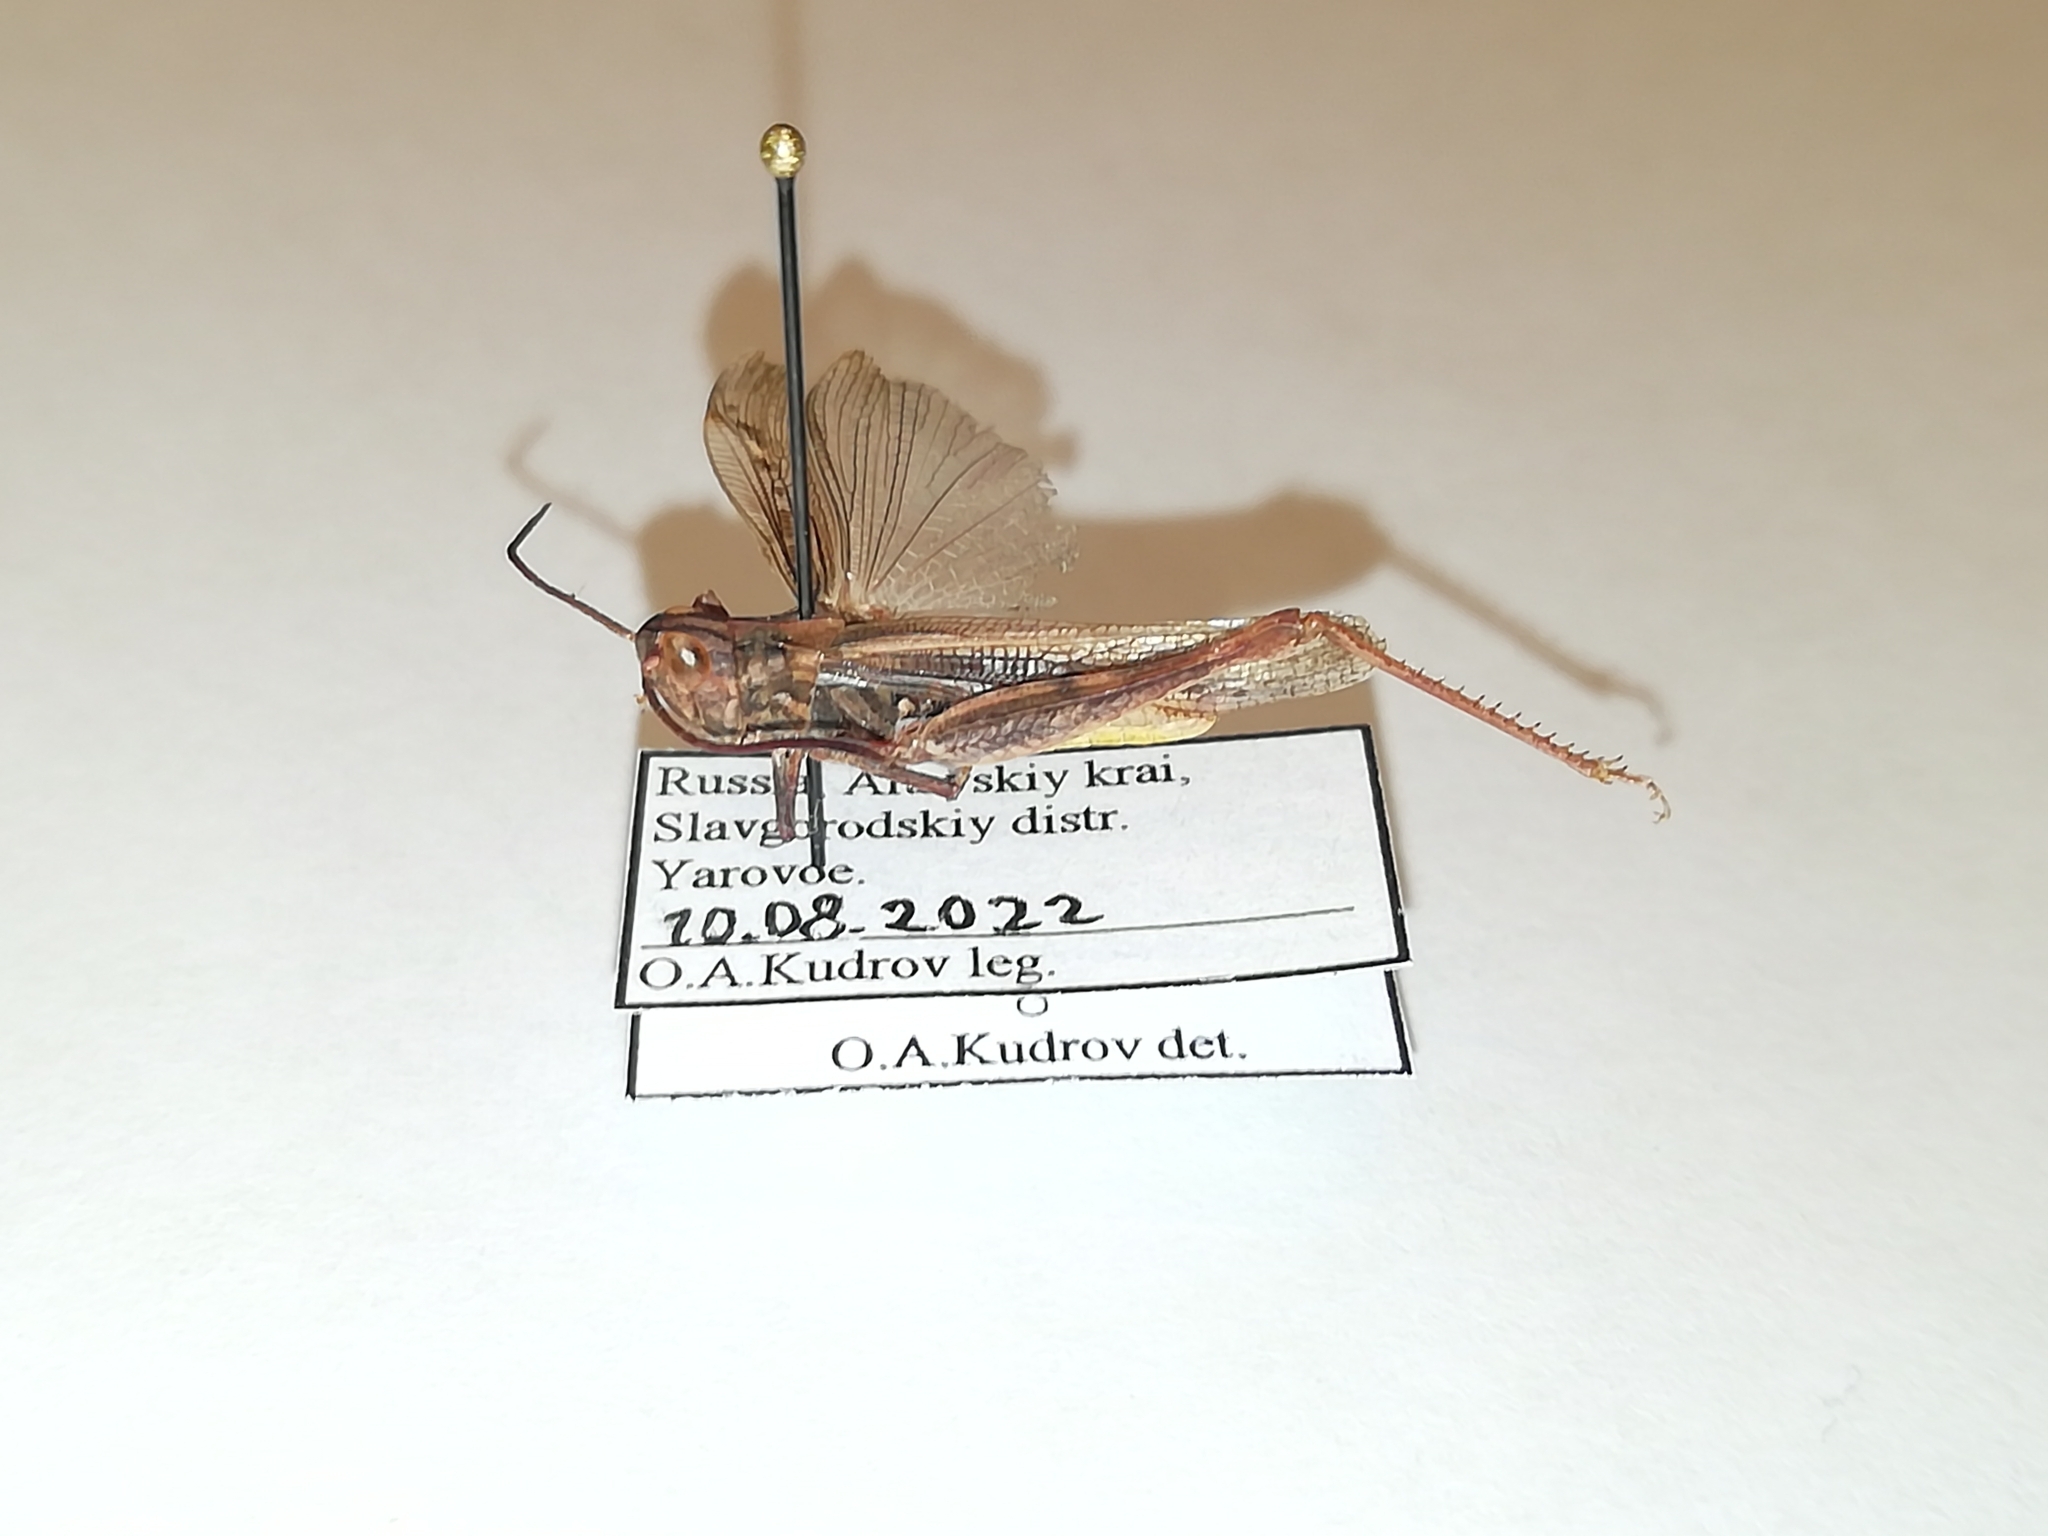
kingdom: Animalia
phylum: Arthropoda
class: Insecta
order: Orthoptera
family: Acrididae
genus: Chorthippus
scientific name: Chorthippus miramae
